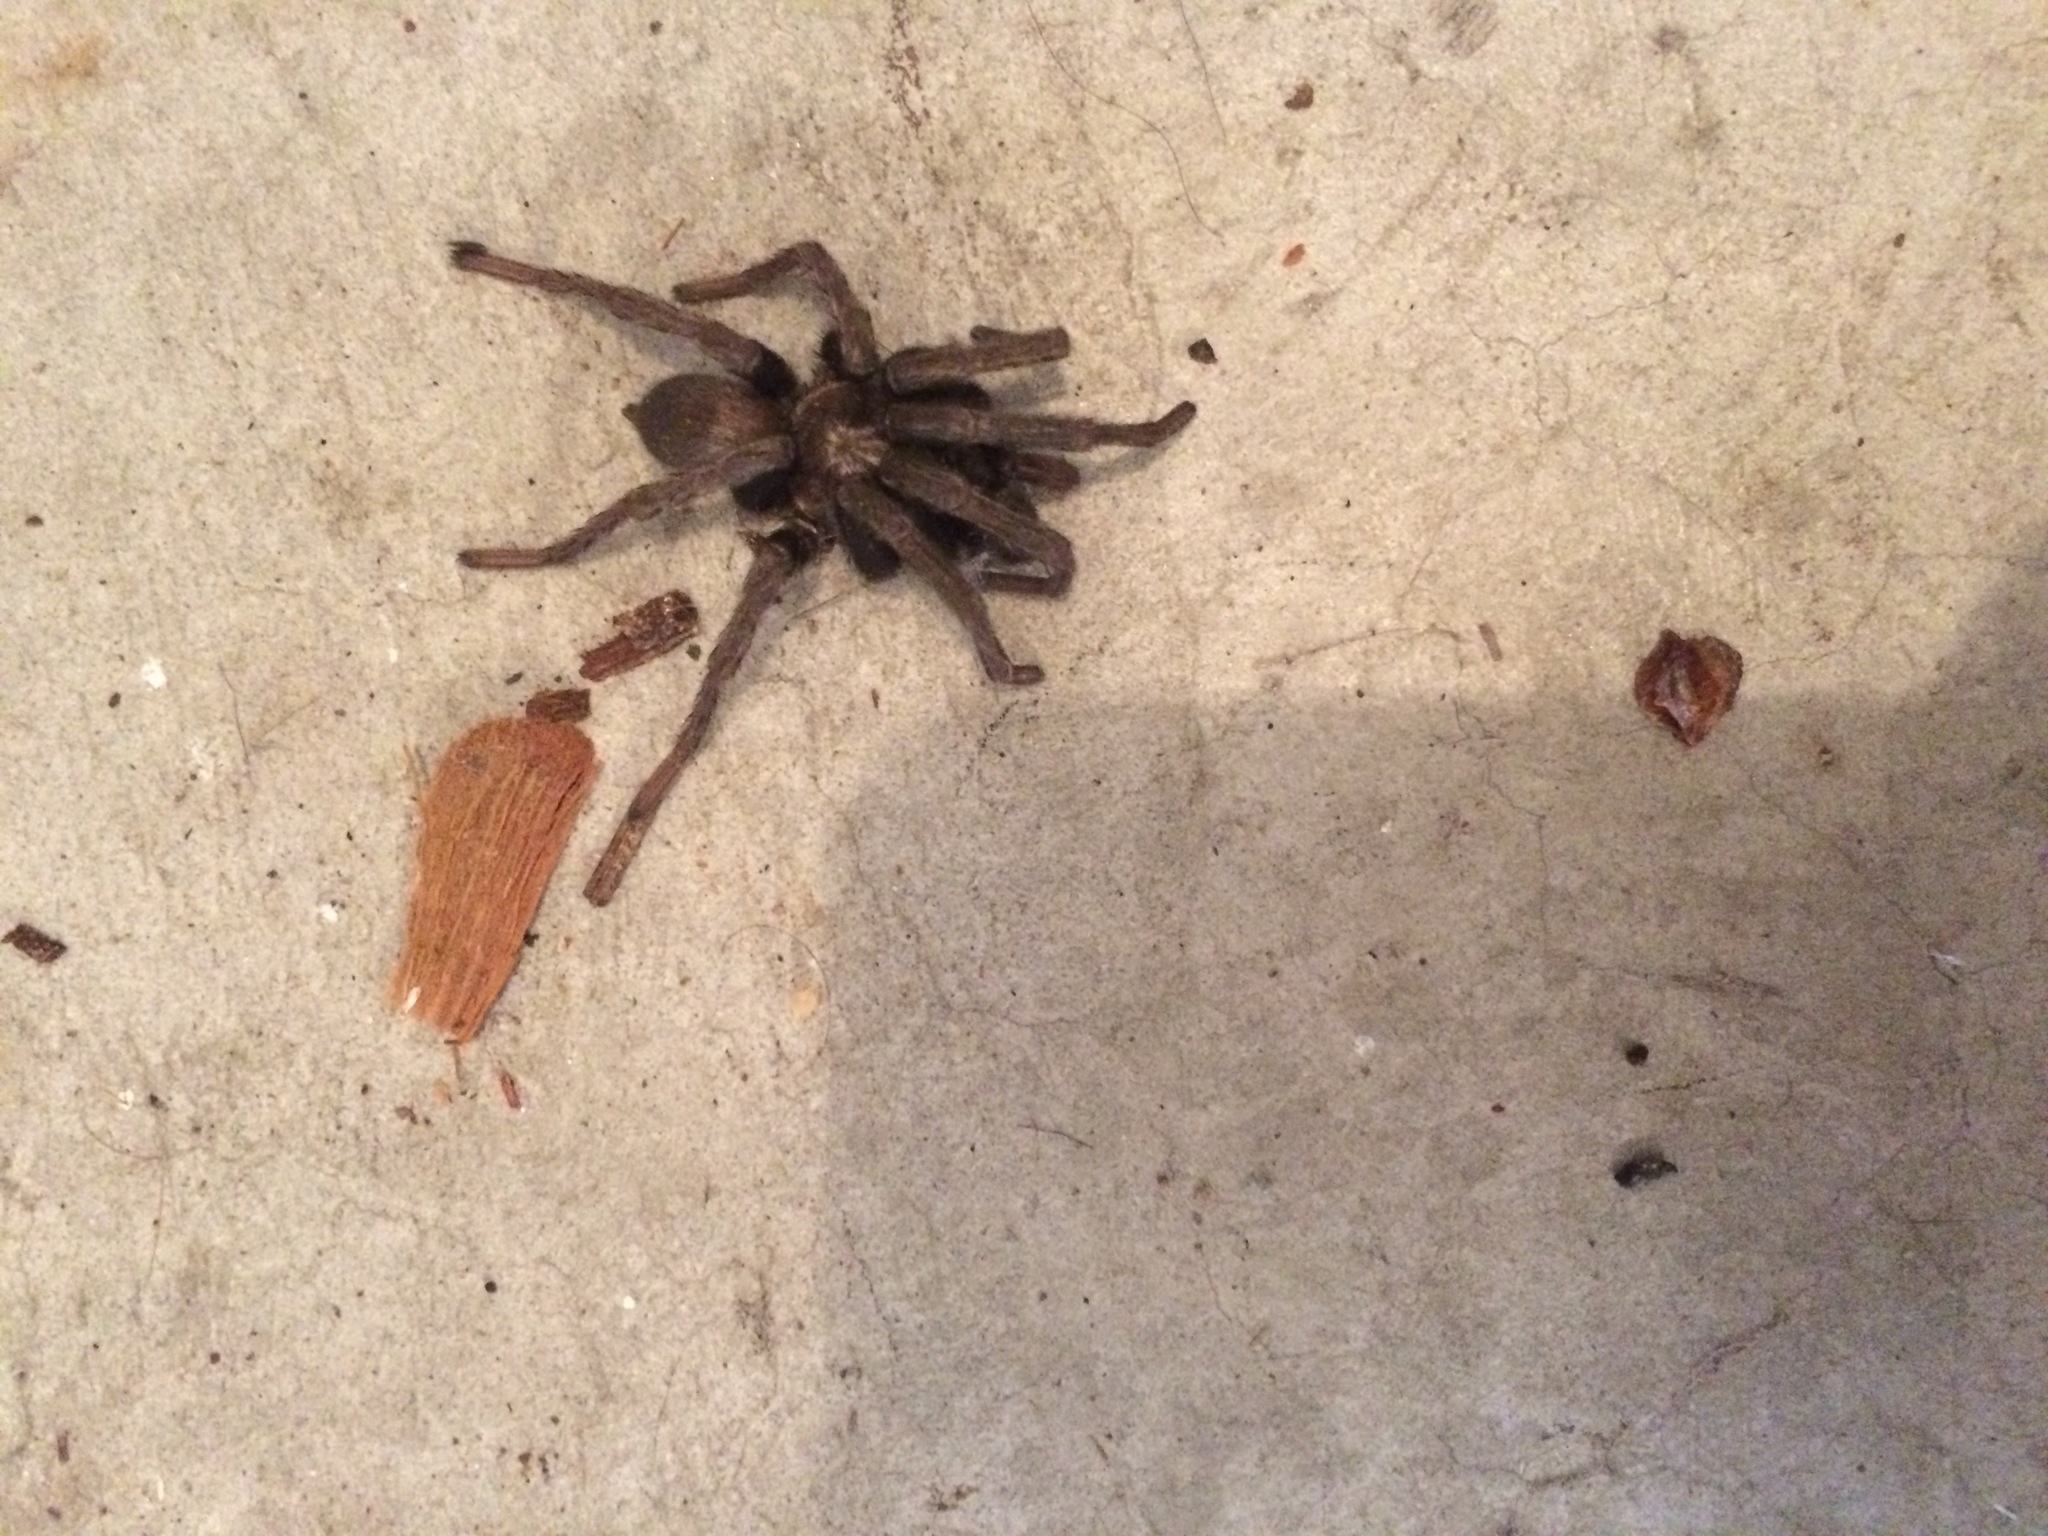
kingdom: Animalia
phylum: Arthropoda
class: Arachnida
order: Araneae
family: Nemesiidae
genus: Calisoga
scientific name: Calisoga longitarsis
